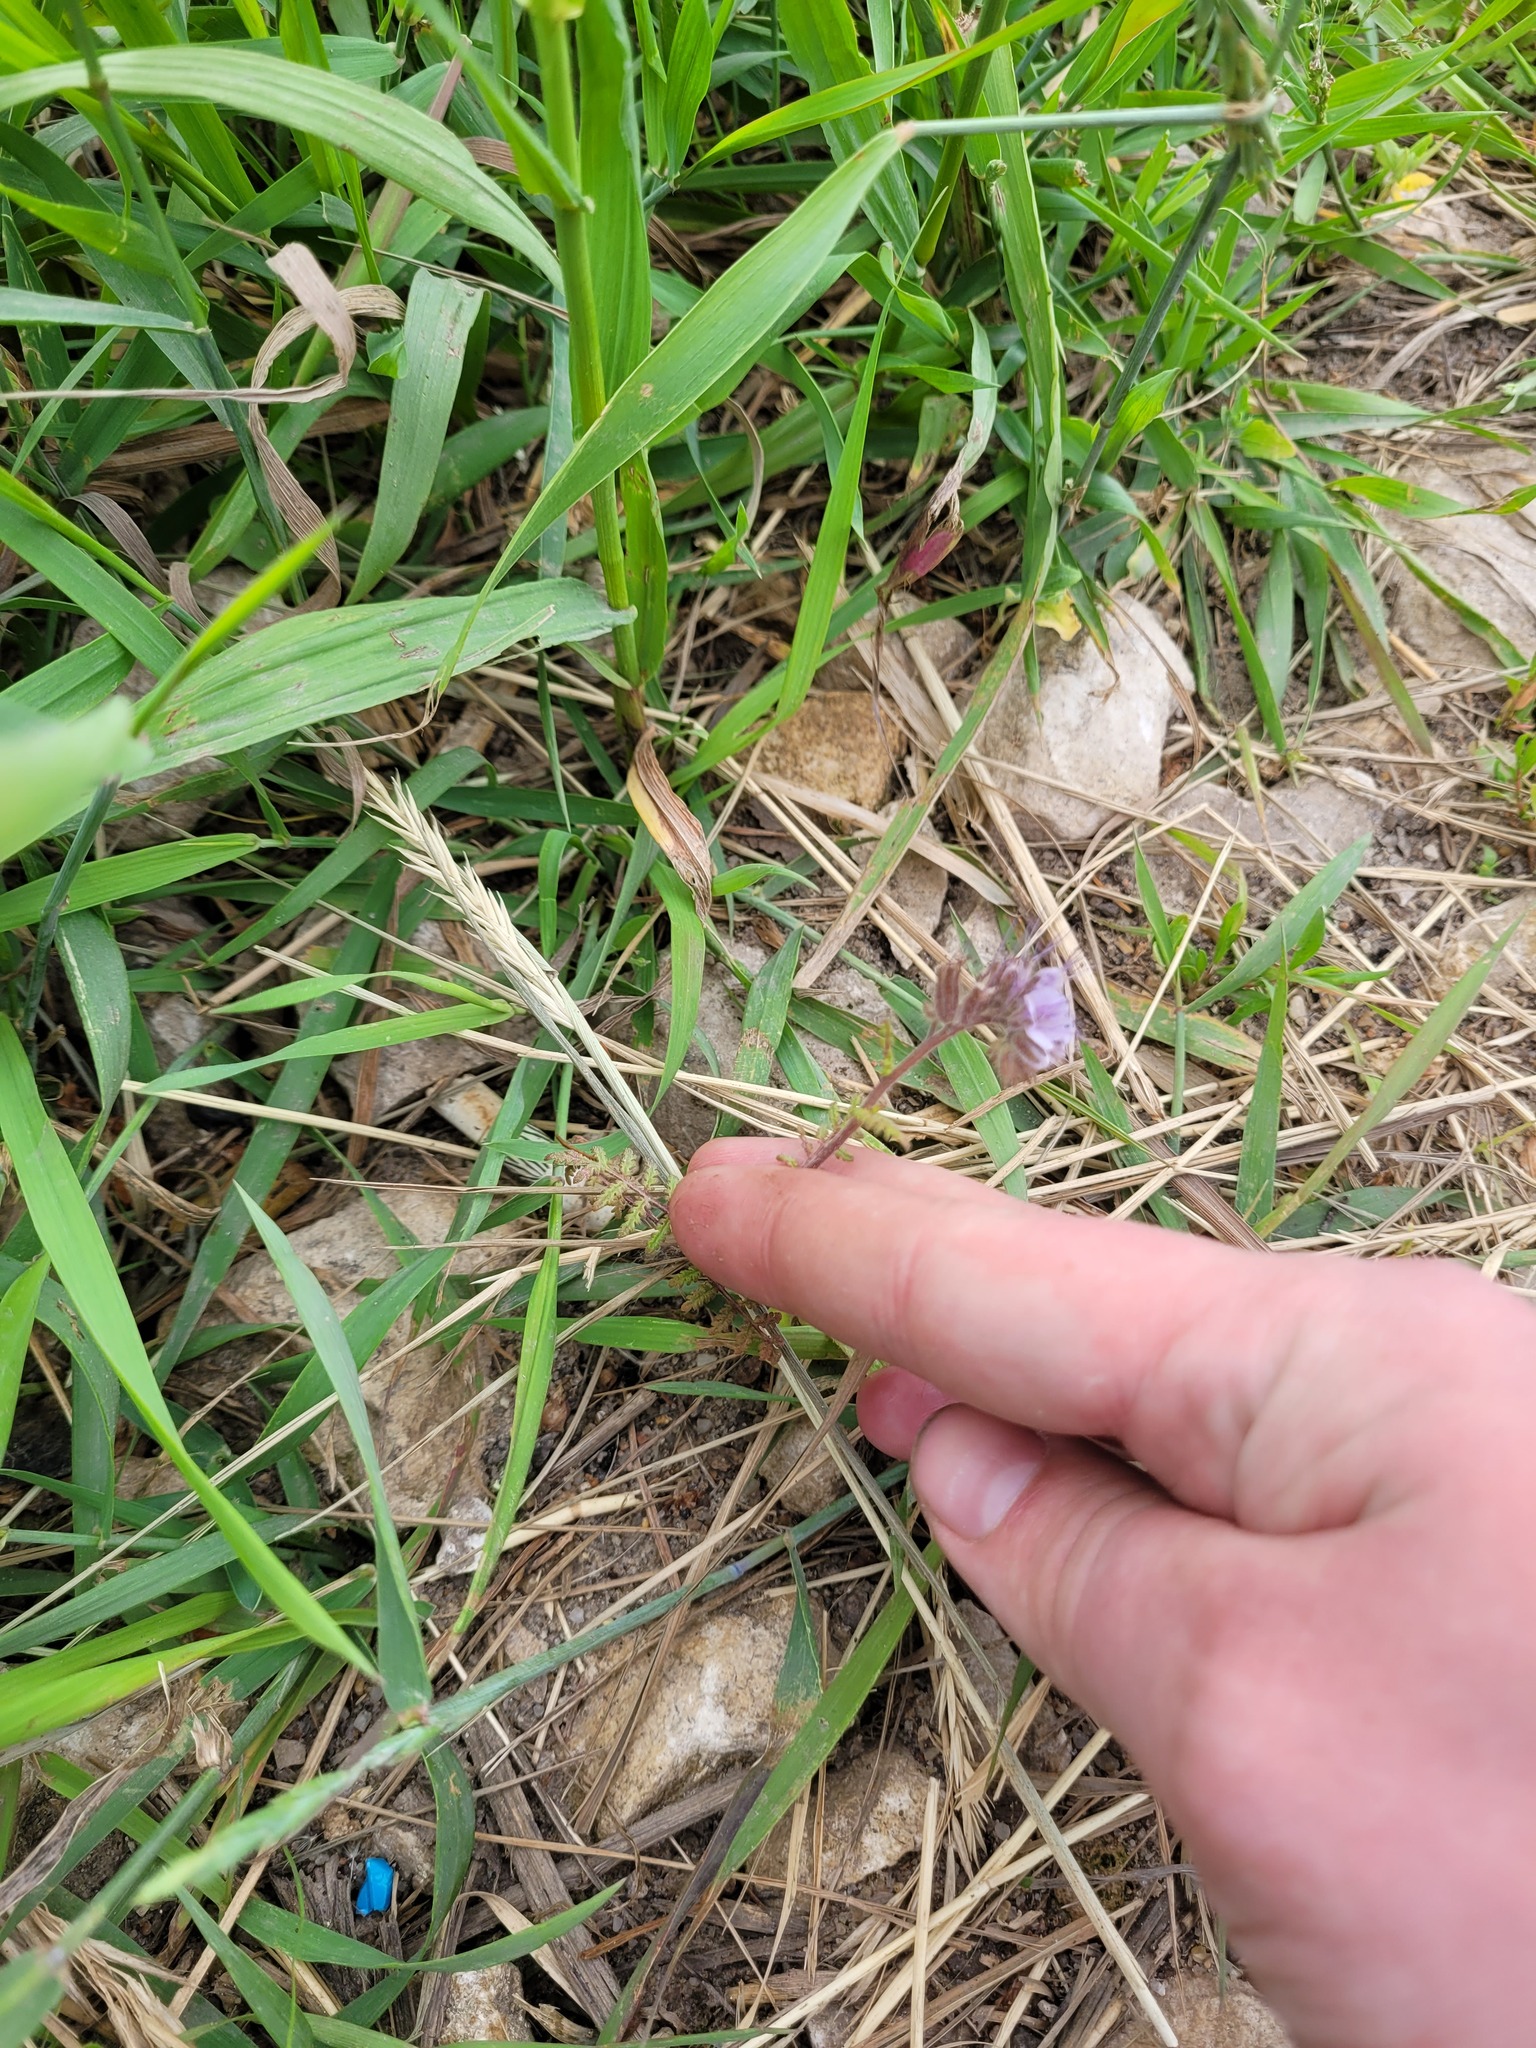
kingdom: Plantae
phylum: Tracheophyta
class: Magnoliopsida
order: Boraginales
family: Hydrophyllaceae
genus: Phacelia
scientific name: Phacelia tanacetifolia
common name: Phacelia
